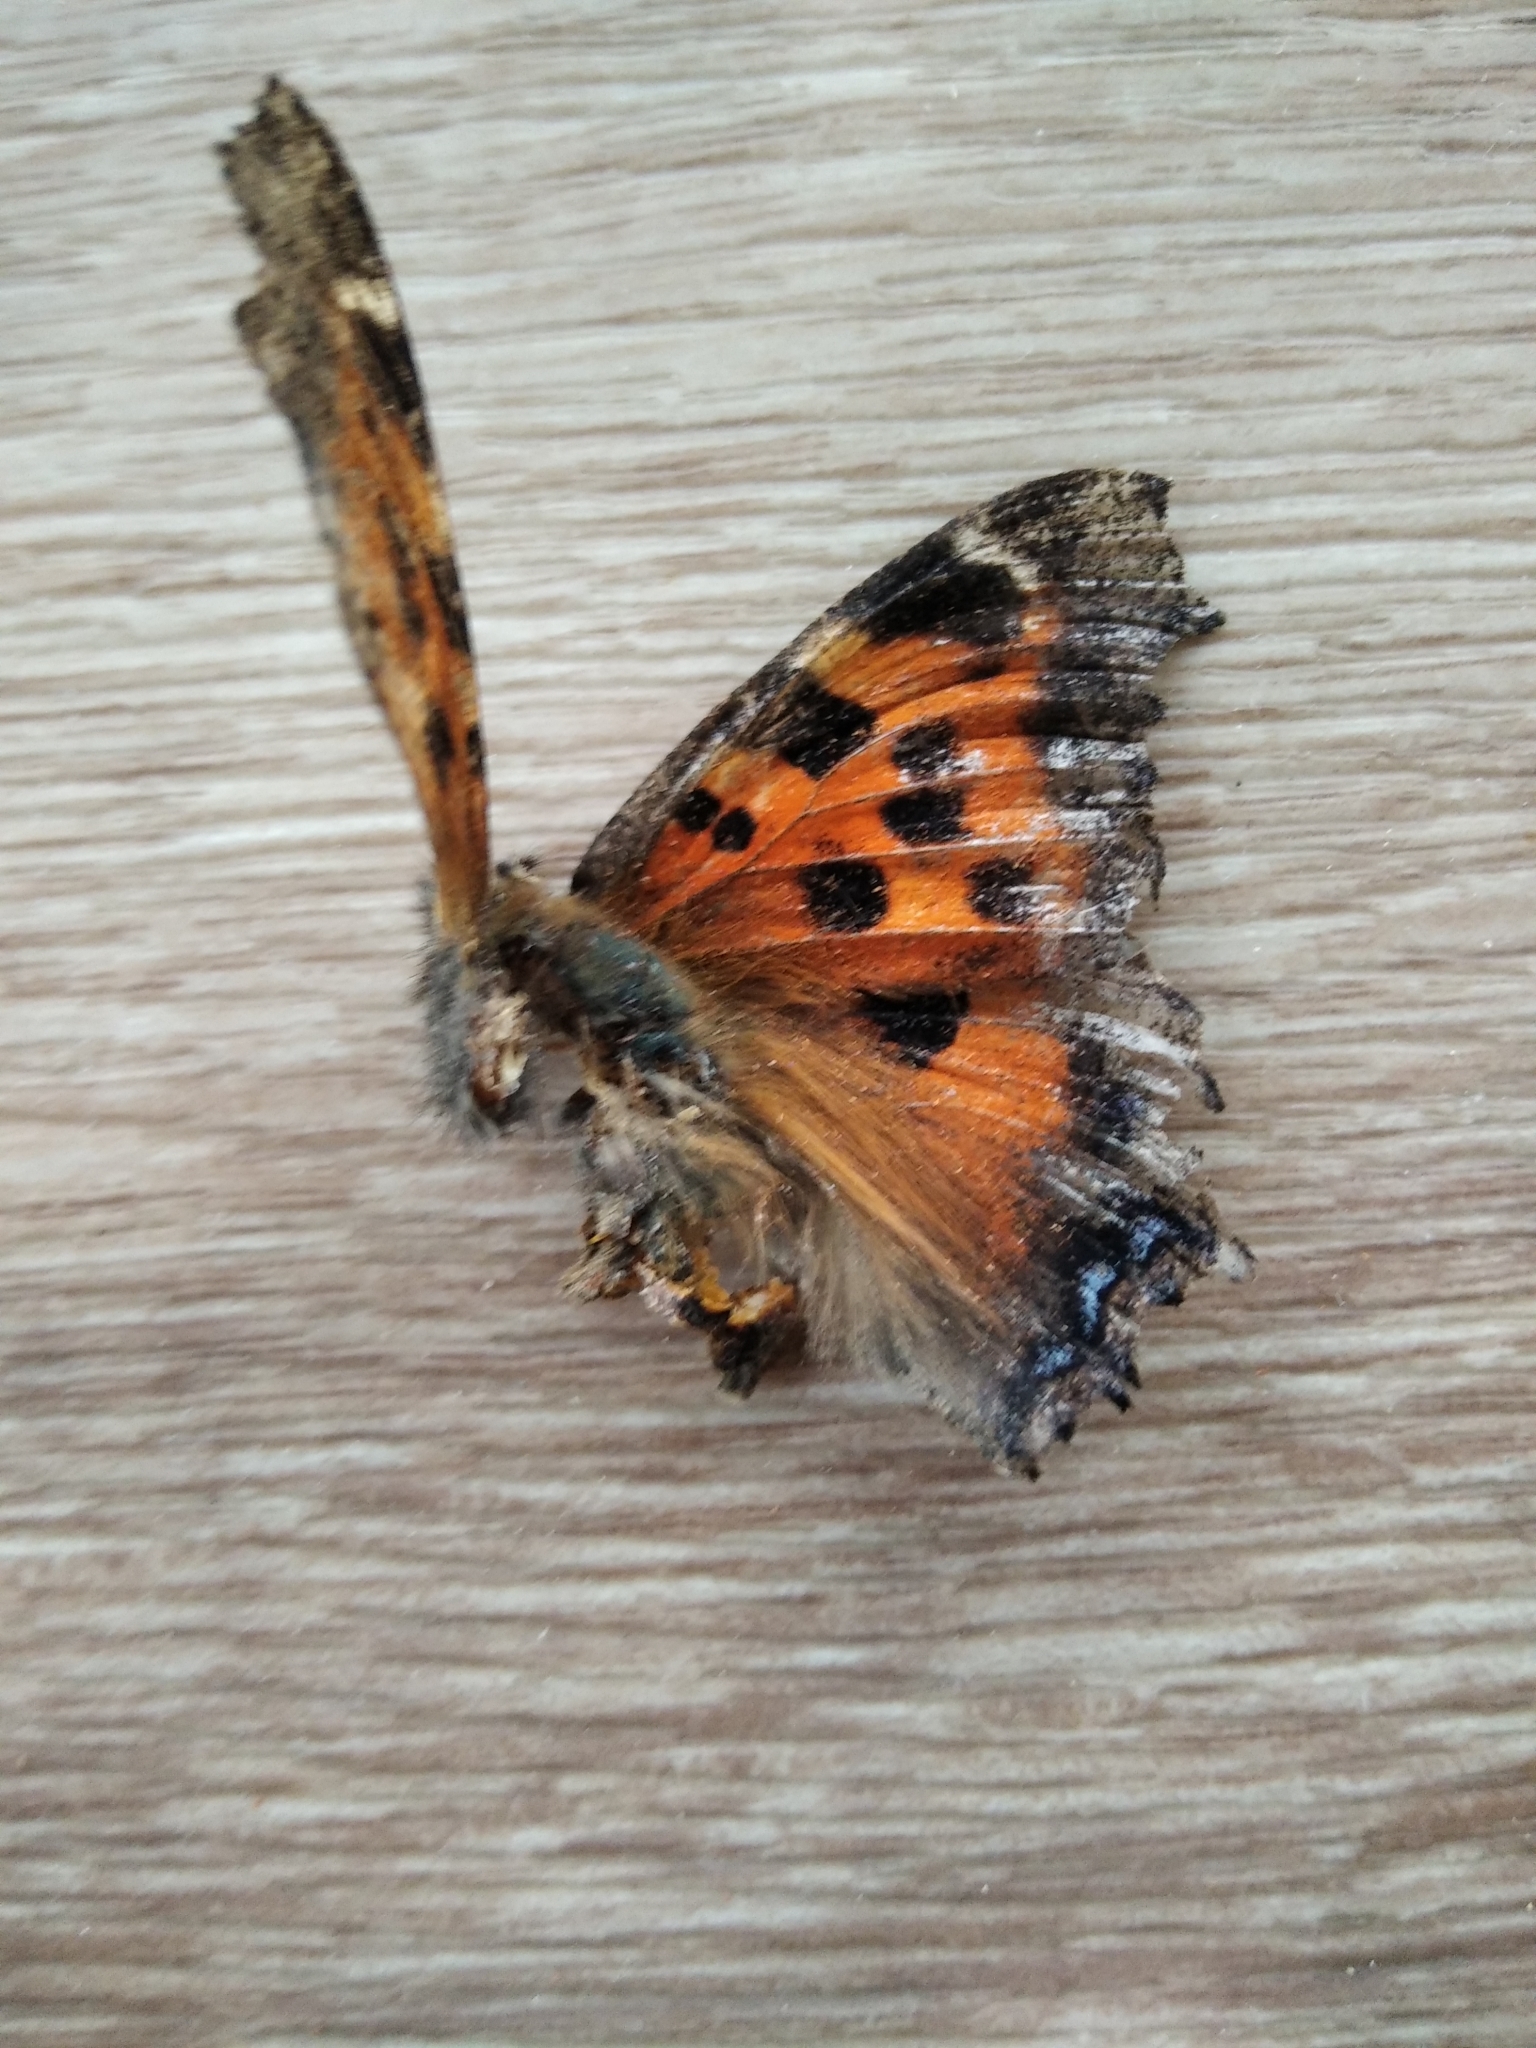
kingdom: Animalia
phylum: Arthropoda
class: Insecta
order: Lepidoptera
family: Nymphalidae
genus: Nymphalis
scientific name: Nymphalis xanthomelas
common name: Scarce tortoiseshell
